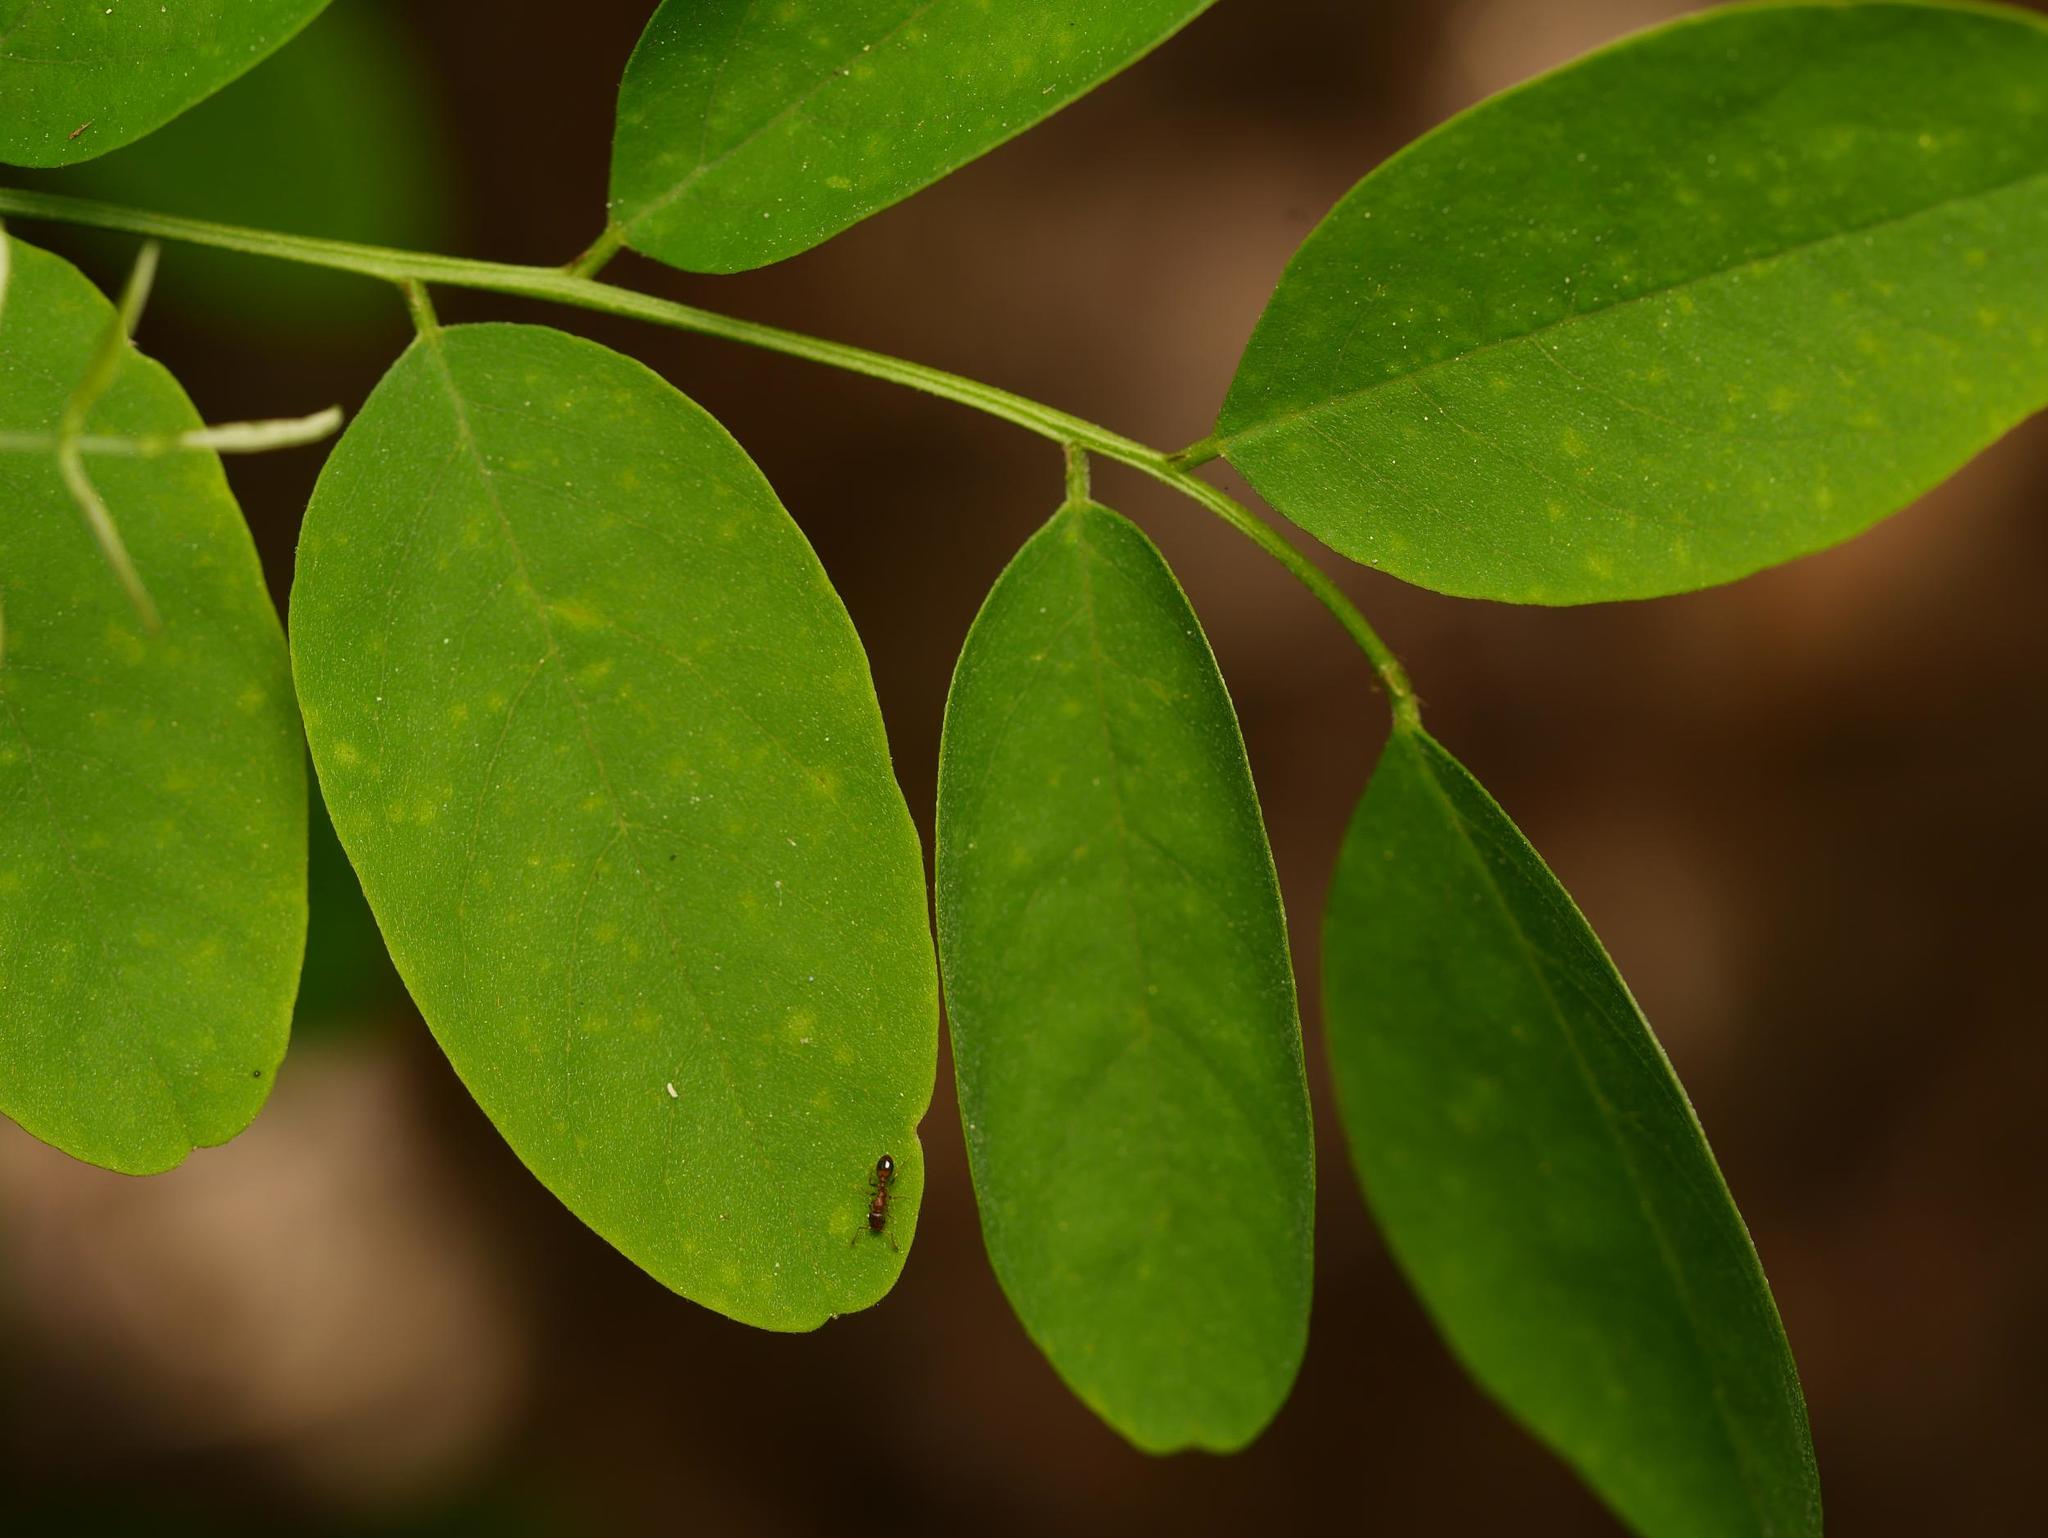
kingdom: Plantae
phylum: Tracheophyta
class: Magnoliopsida
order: Fabales
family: Fabaceae
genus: Robinia
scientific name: Robinia pseudoacacia
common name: Black locust
